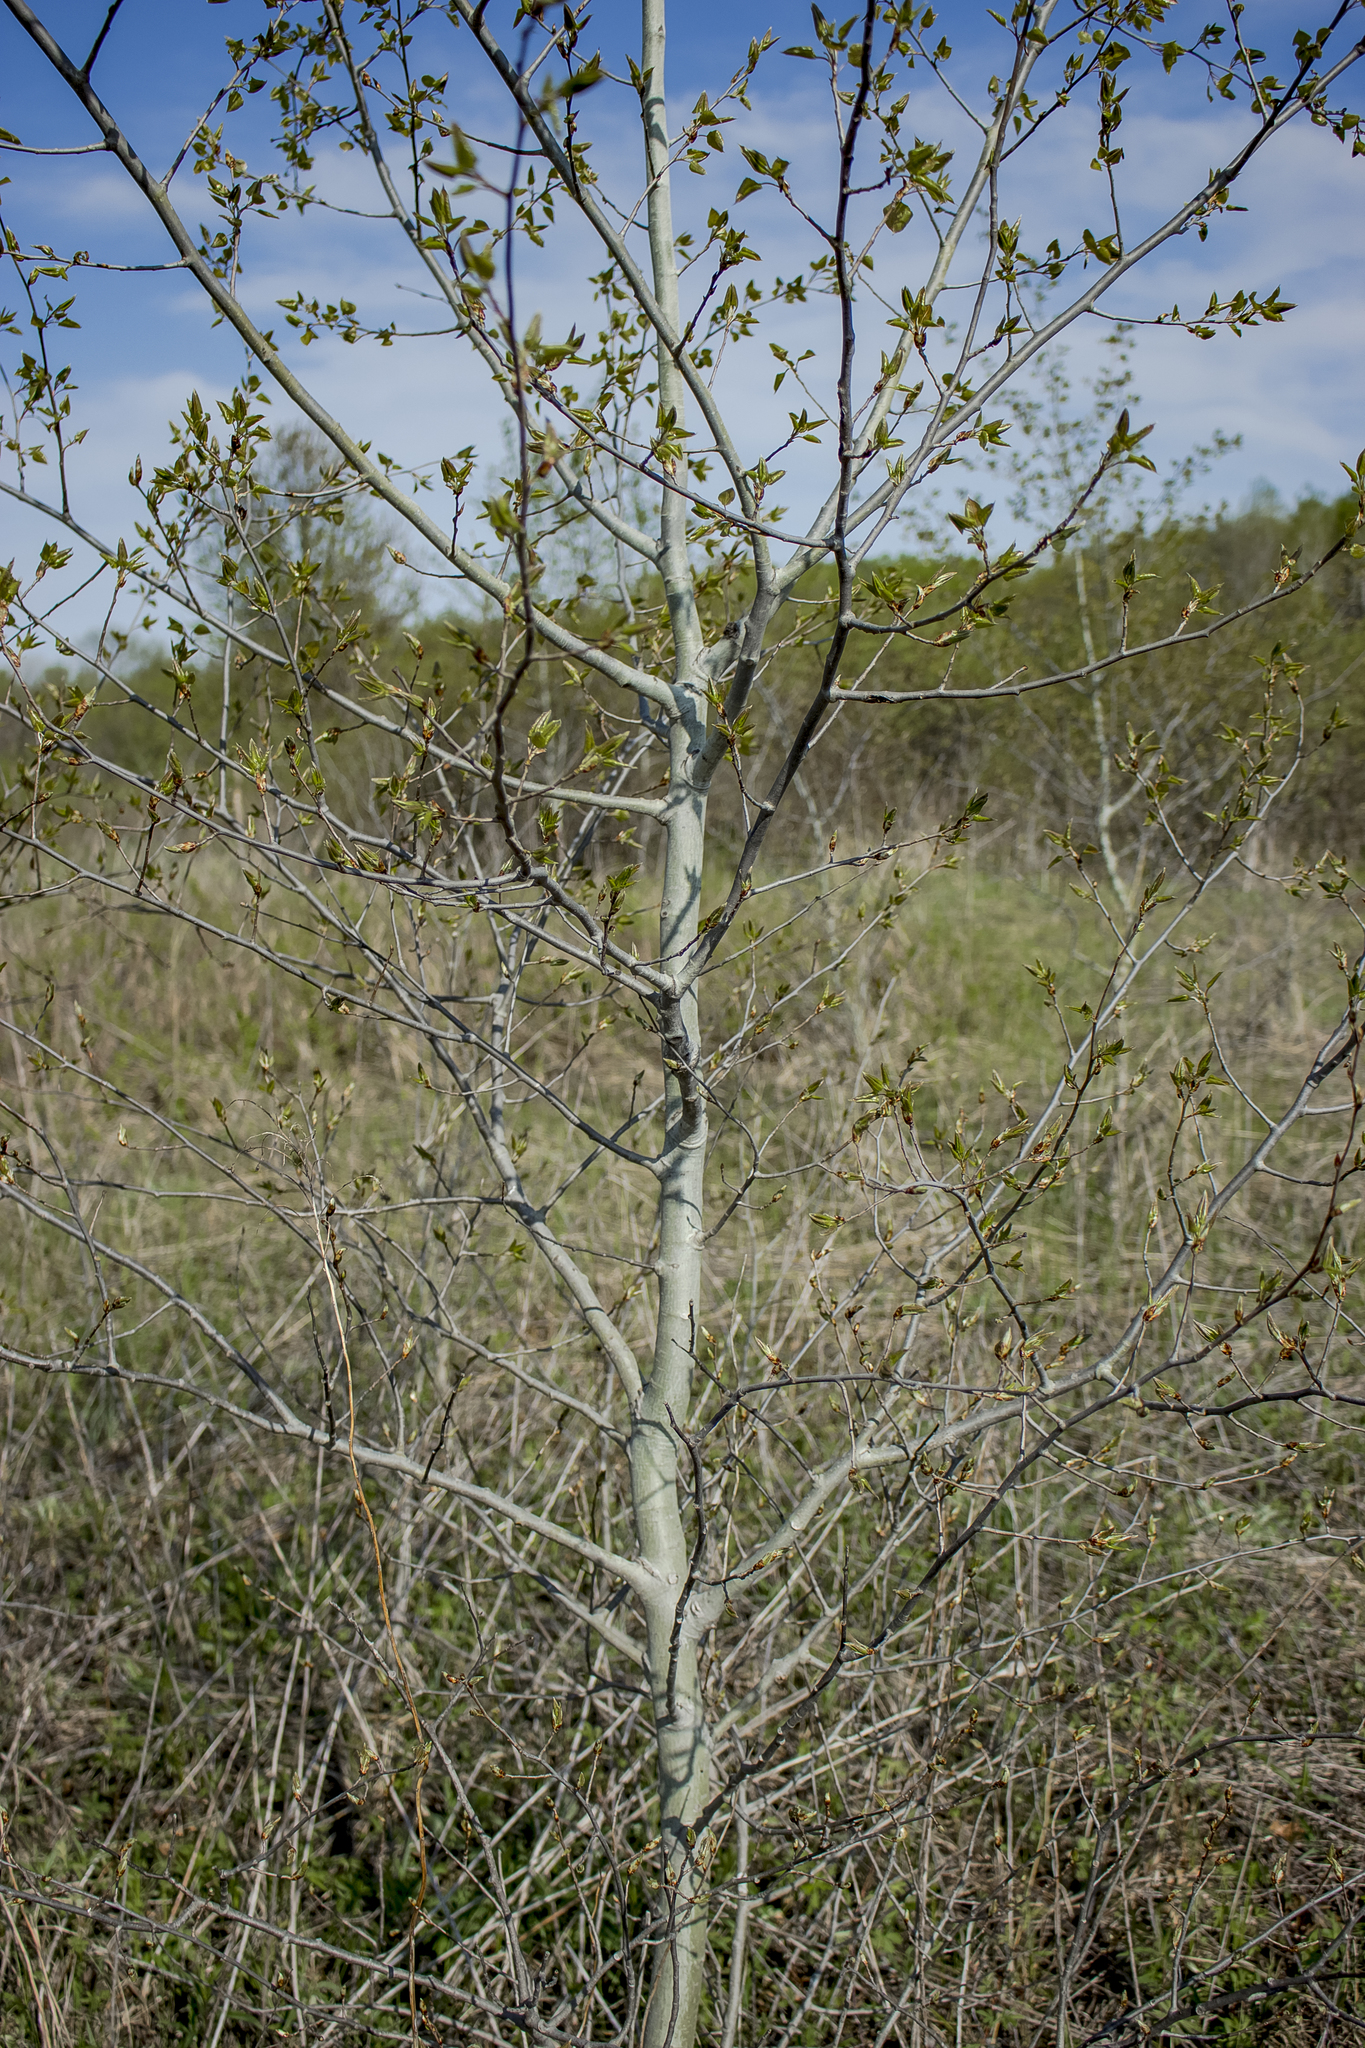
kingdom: Plantae
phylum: Tracheophyta
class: Magnoliopsida
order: Malpighiales
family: Salicaceae
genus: Populus
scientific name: Populus tremuloides
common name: Quaking aspen
